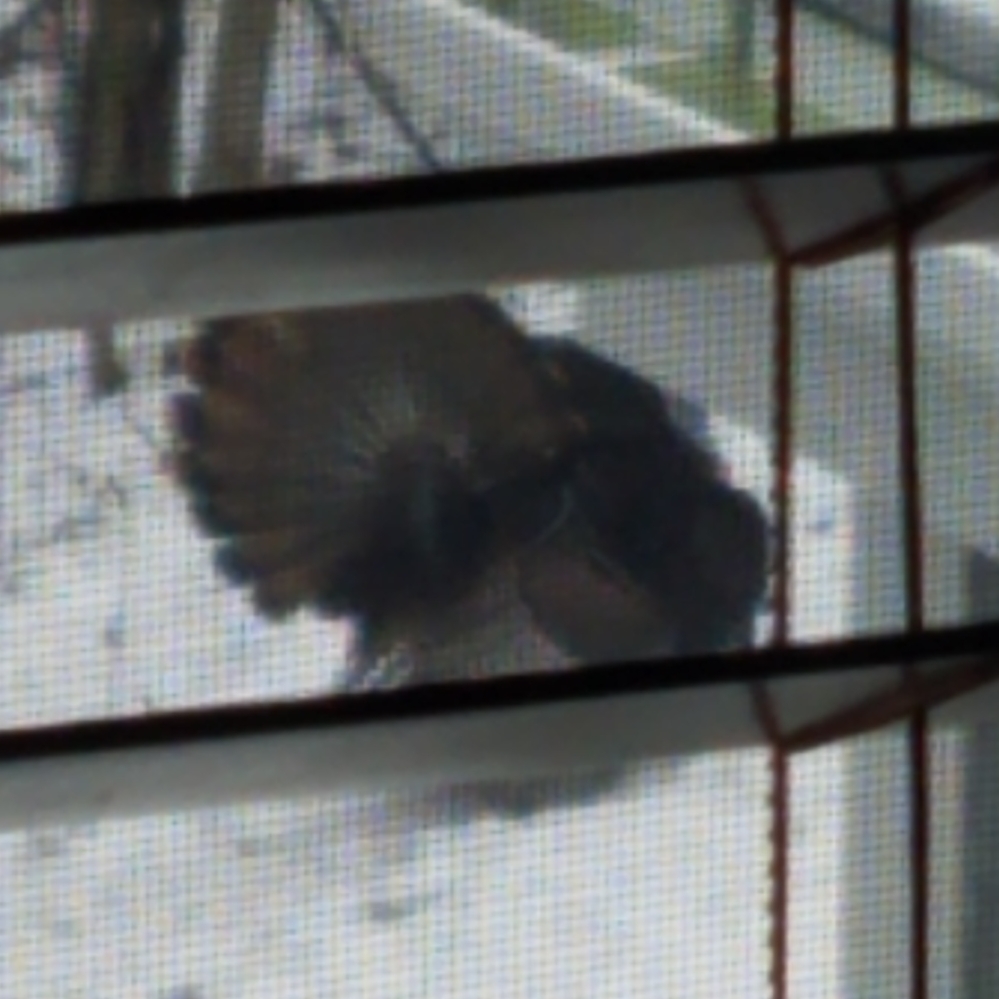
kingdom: Animalia
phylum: Chordata
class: Aves
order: Galliformes
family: Phasianidae
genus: Meleagris
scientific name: Meleagris gallopavo
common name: Wild turkey
